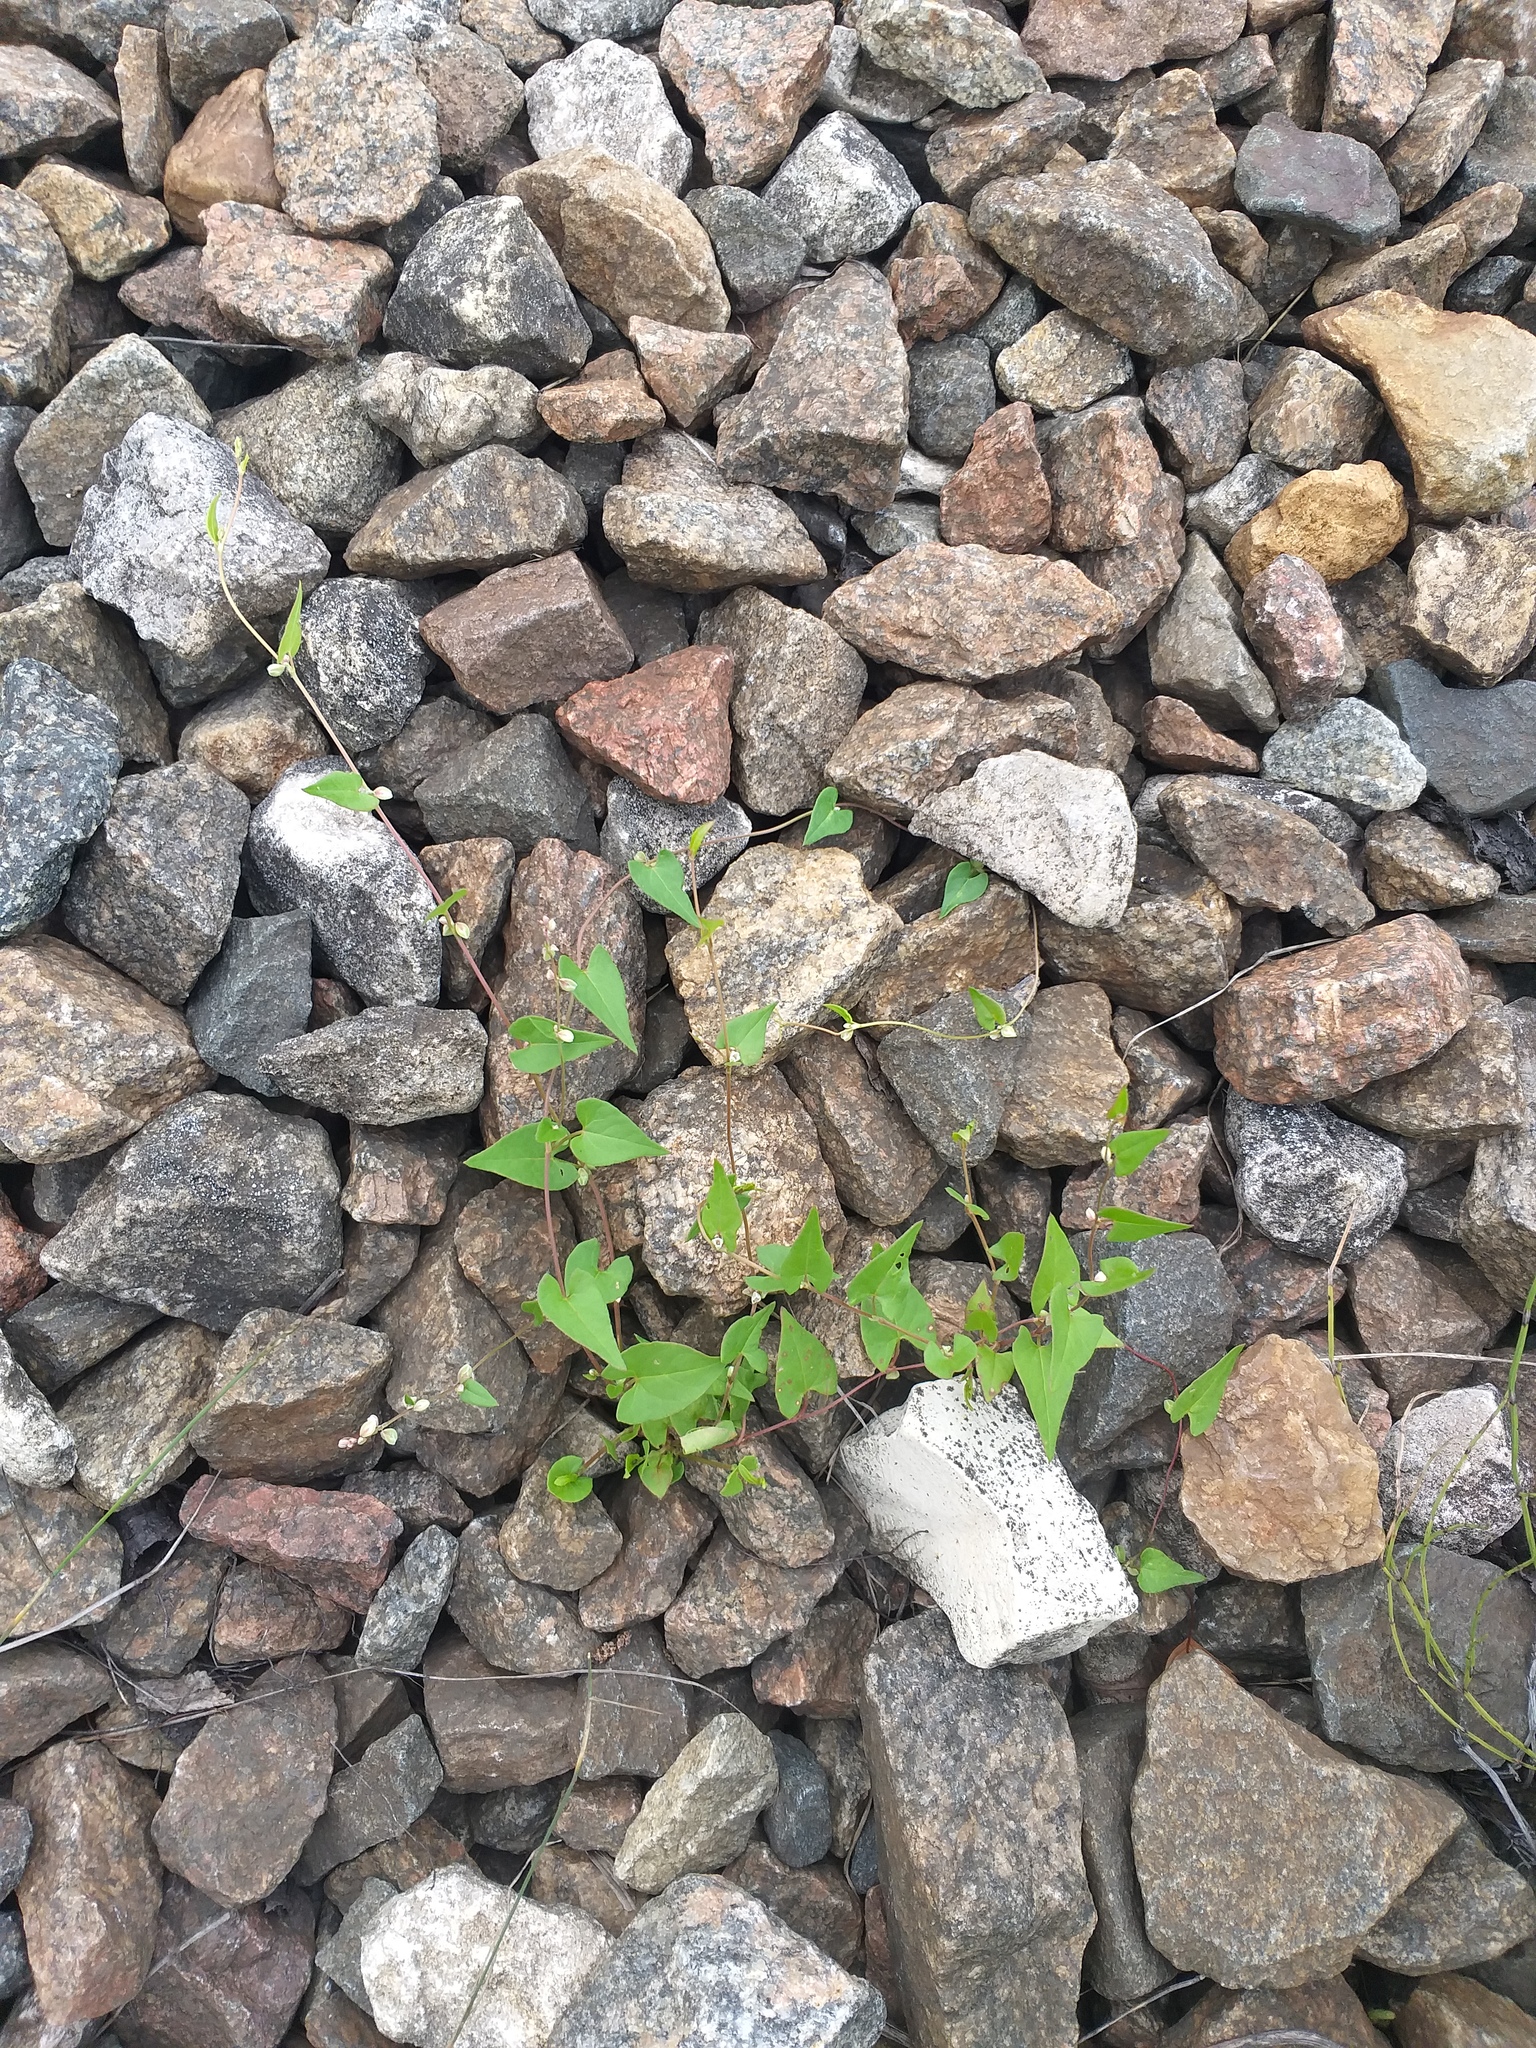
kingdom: Plantae
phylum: Tracheophyta
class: Magnoliopsida
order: Caryophyllales
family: Polygonaceae
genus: Fallopia
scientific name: Fallopia convolvulus
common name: Black bindweed
